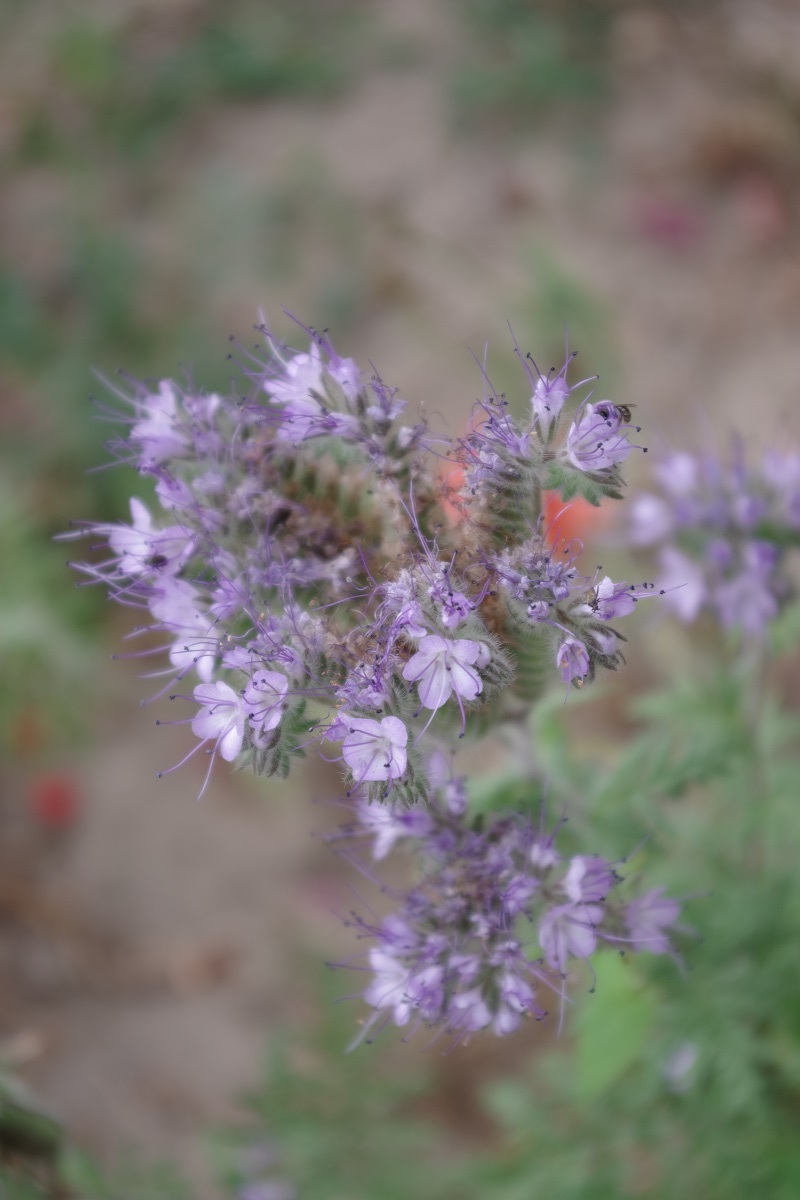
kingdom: Plantae
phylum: Tracheophyta
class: Magnoliopsida
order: Boraginales
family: Hydrophyllaceae
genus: Phacelia
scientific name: Phacelia tanacetifolia
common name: Phacelia
